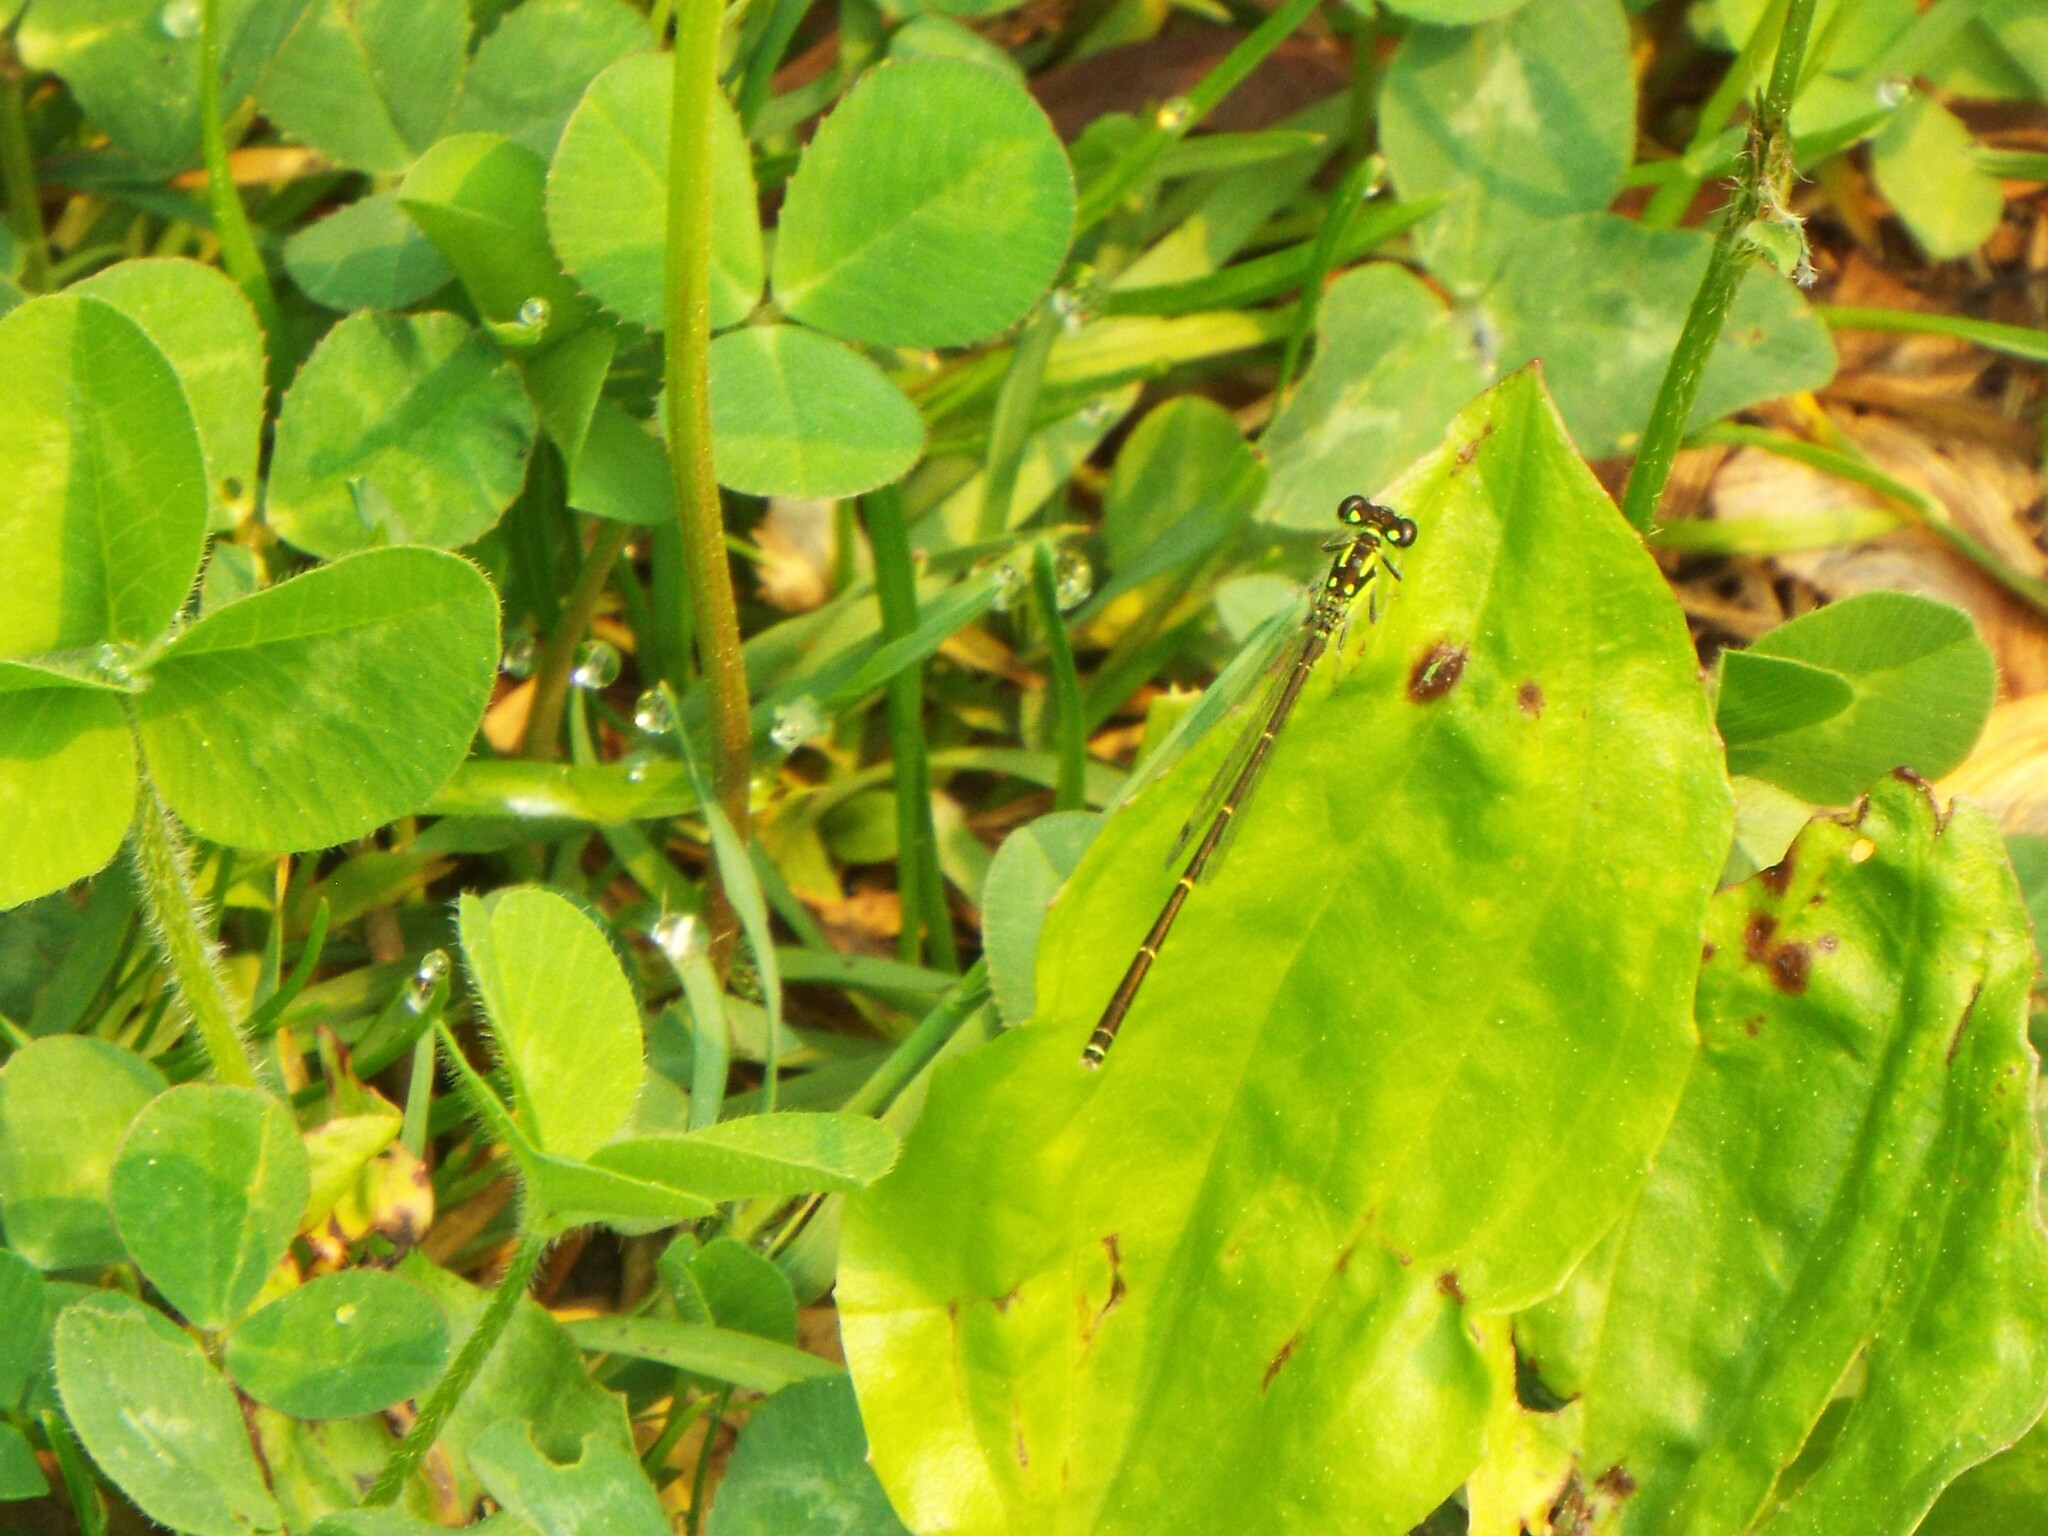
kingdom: Animalia
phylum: Arthropoda
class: Insecta
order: Odonata
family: Coenagrionidae
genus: Ischnura
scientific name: Ischnura posita
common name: Fragile forktail
